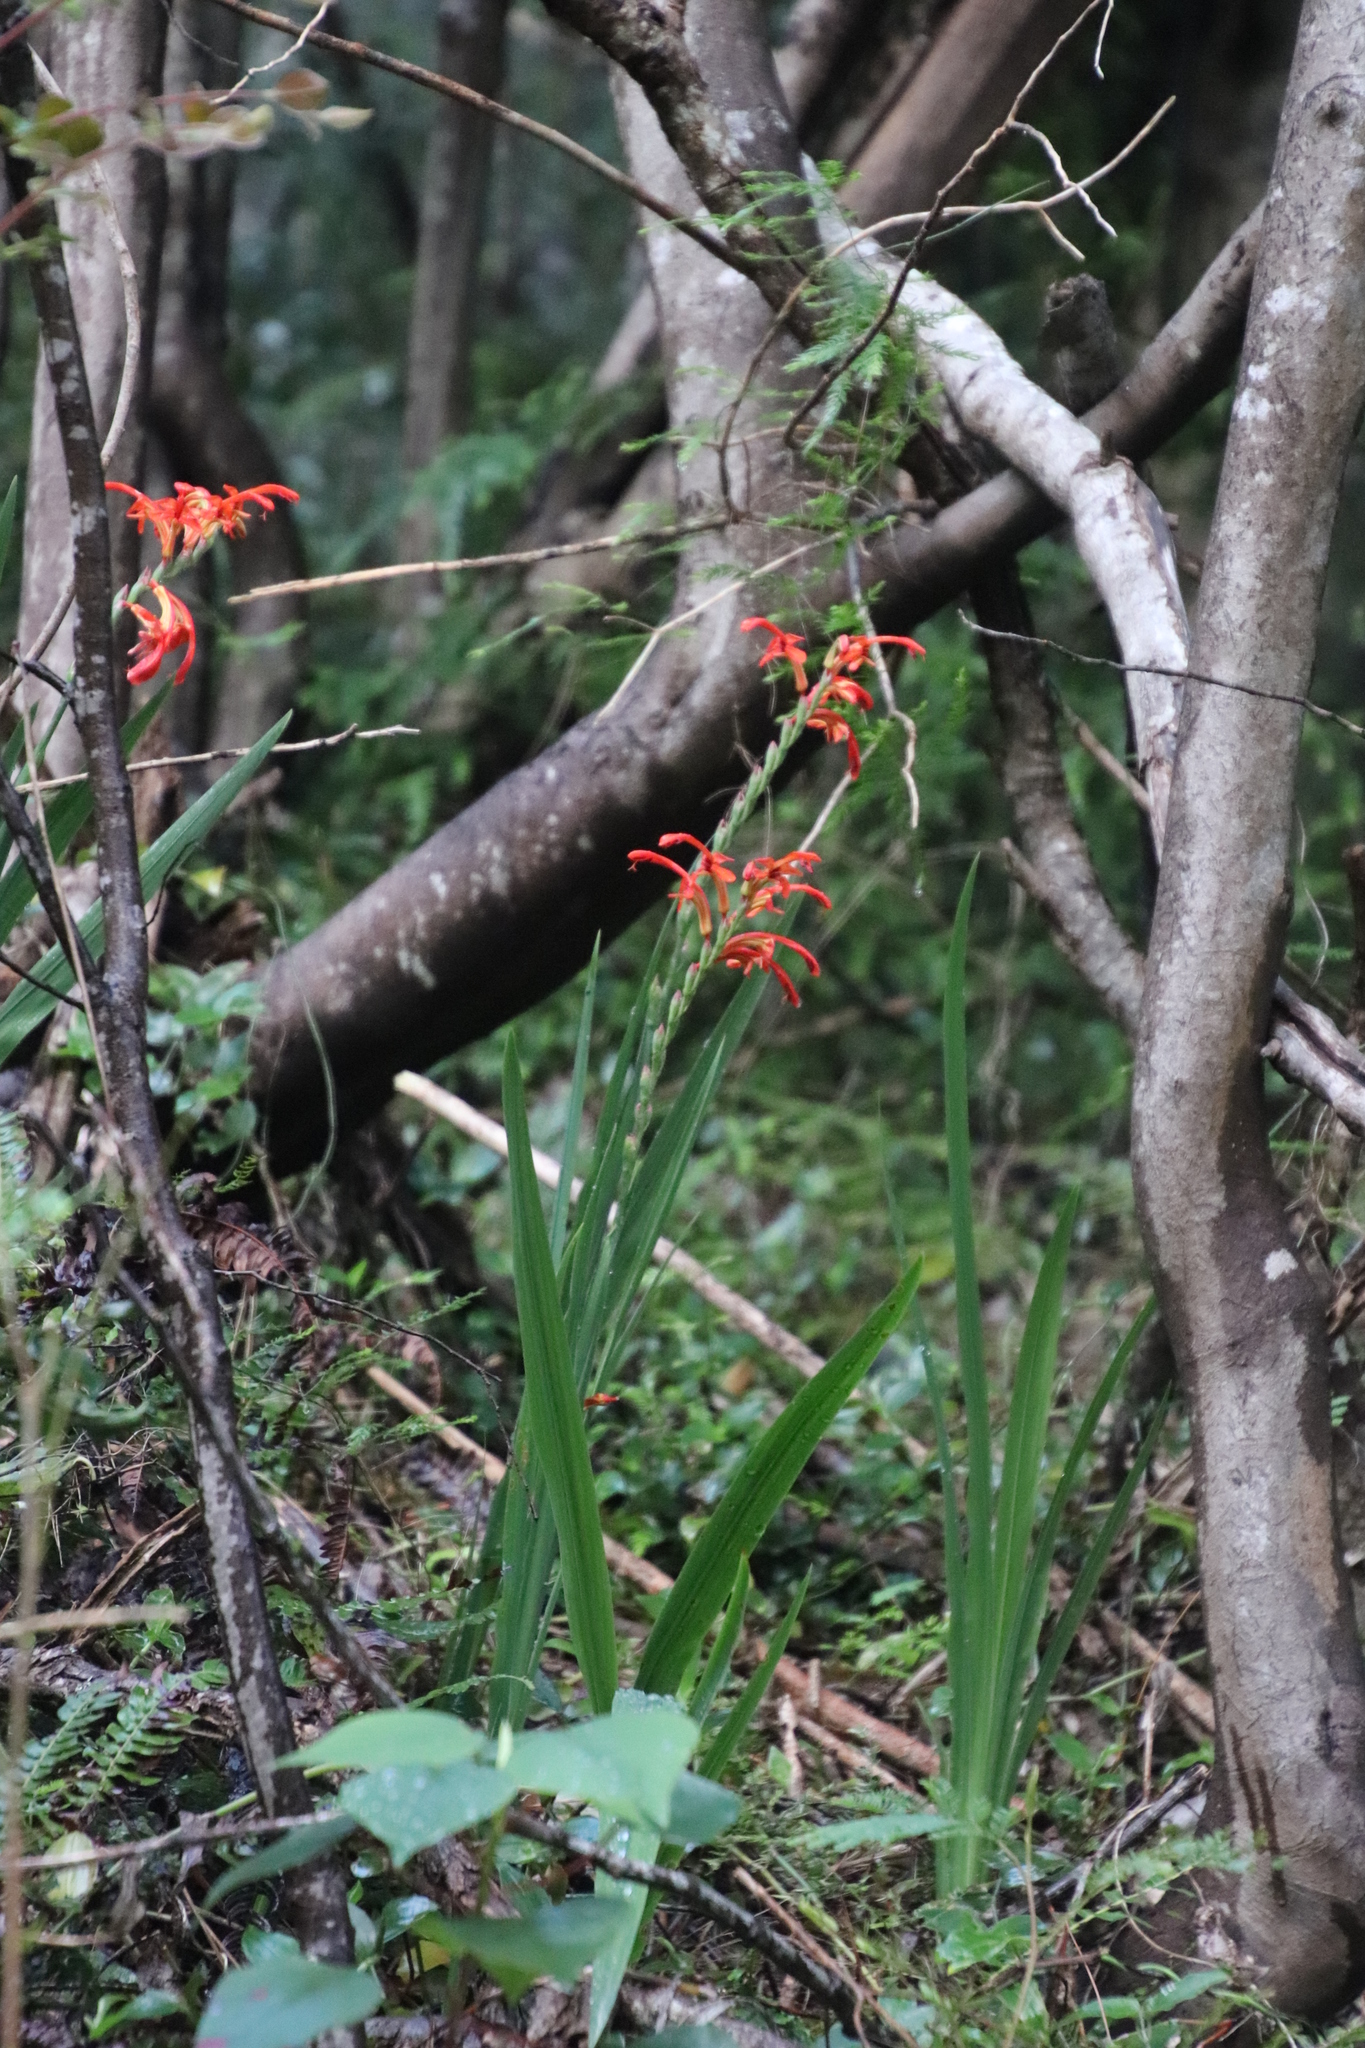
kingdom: Plantae
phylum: Tracheophyta
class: Liliopsida
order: Asparagales
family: Iridaceae
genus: Chasmanthe
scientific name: Chasmanthe aethiopica
